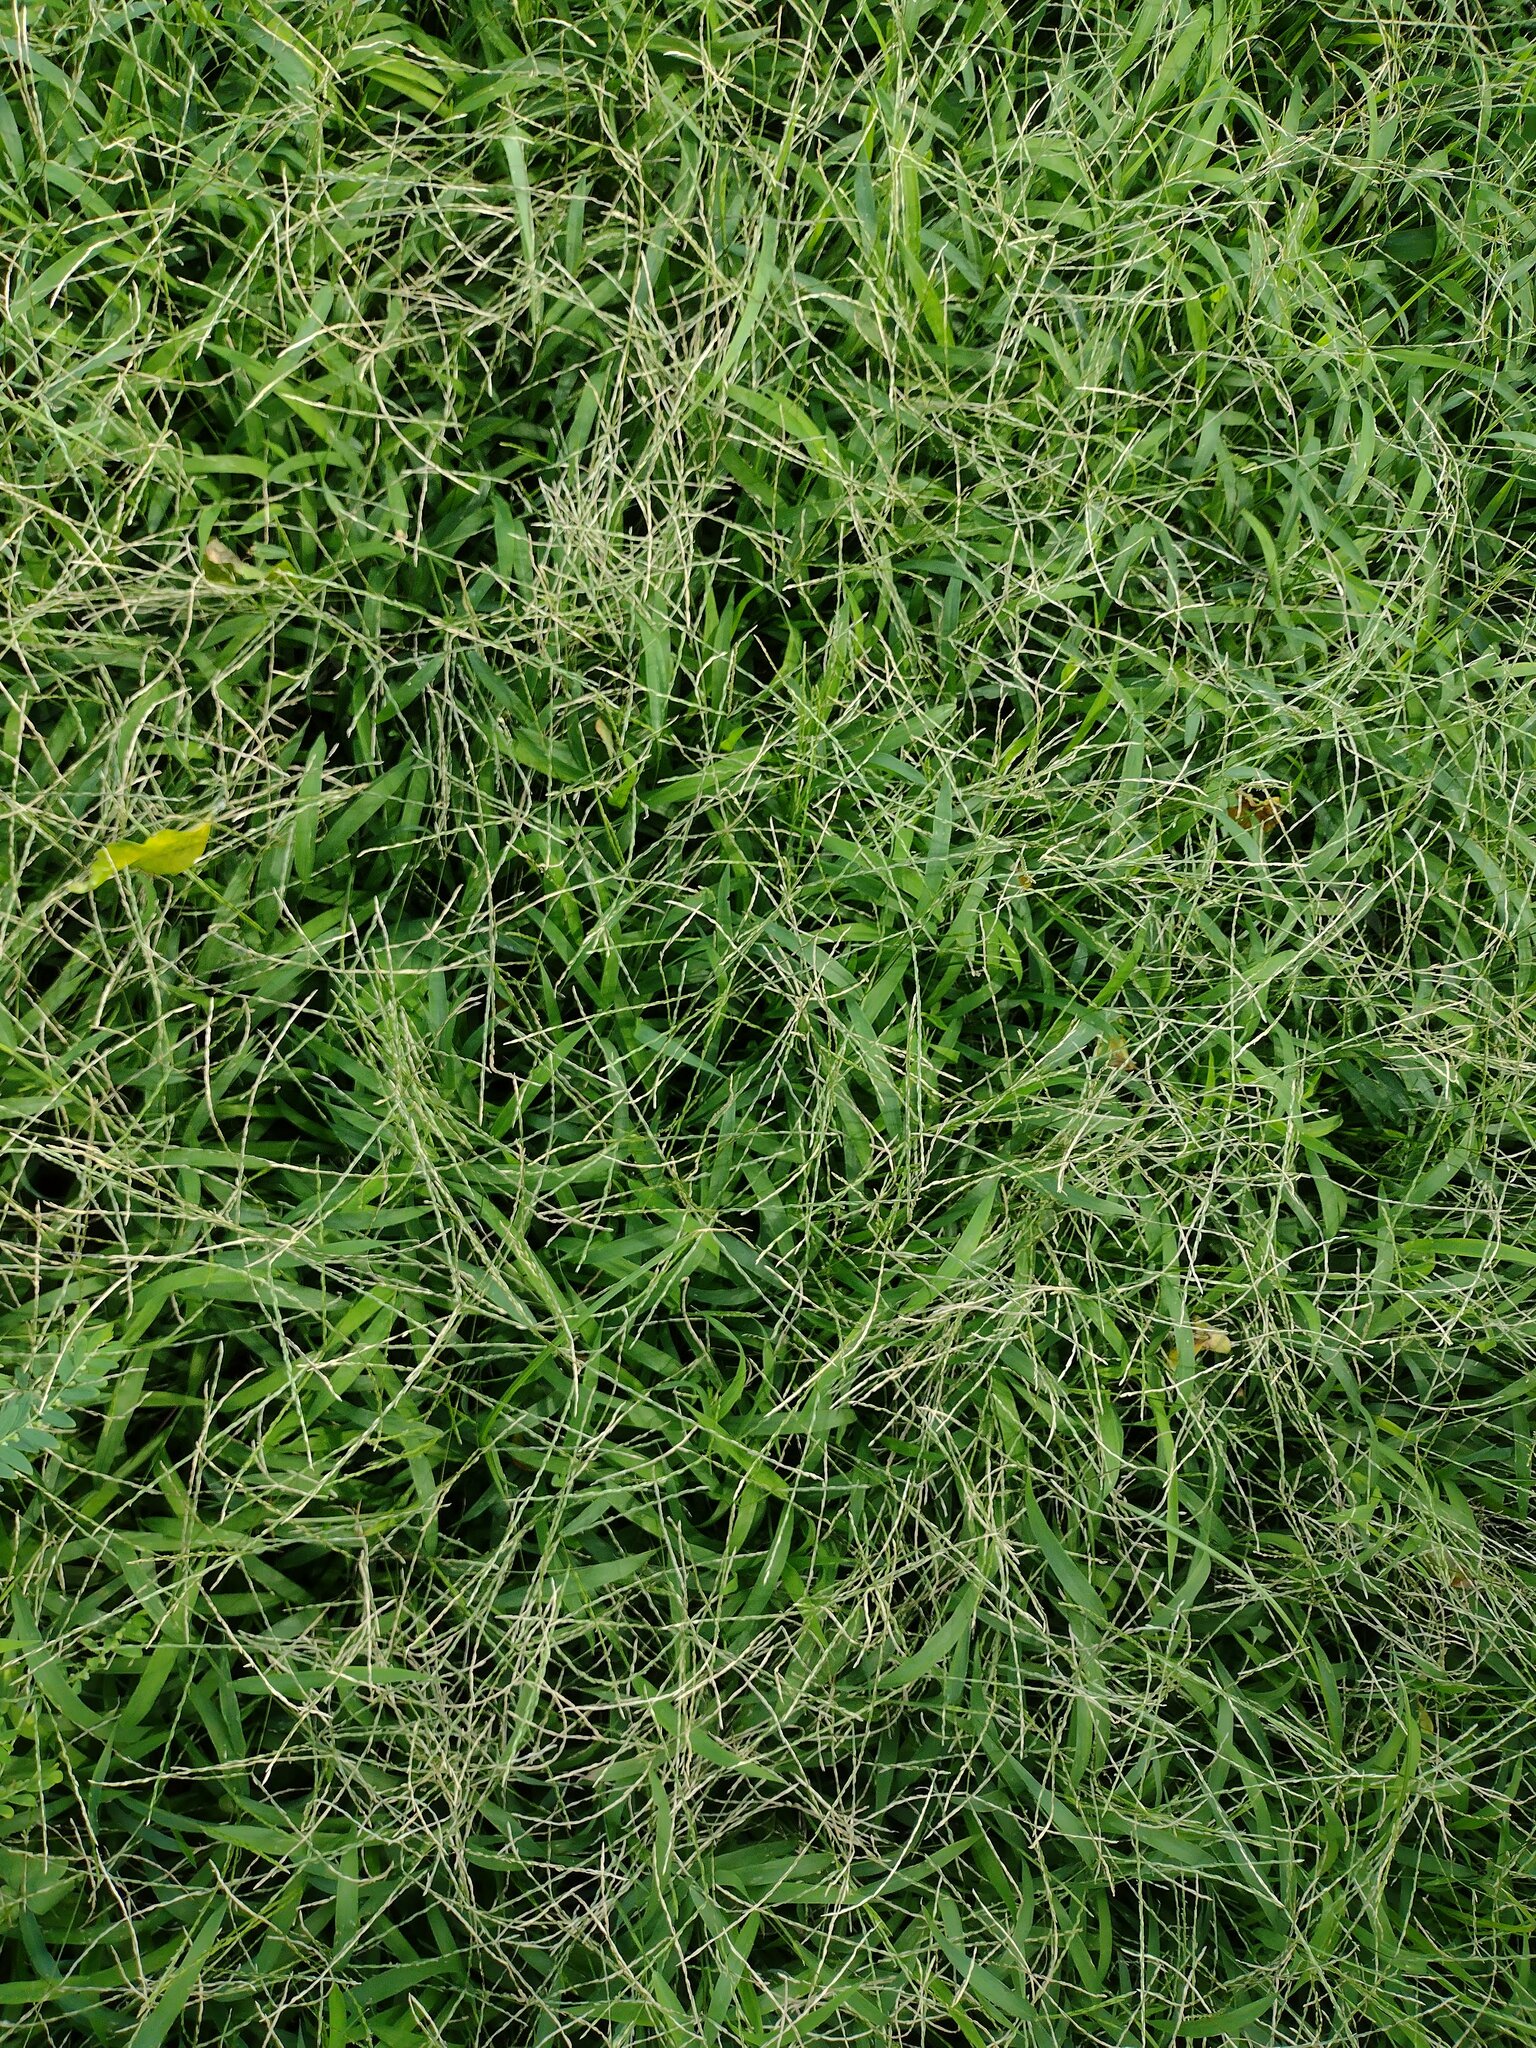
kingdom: Plantae
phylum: Tracheophyta
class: Liliopsida
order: Poales
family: Poaceae
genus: Urochloa
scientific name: Urochloa glumaris
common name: Thurston grass
